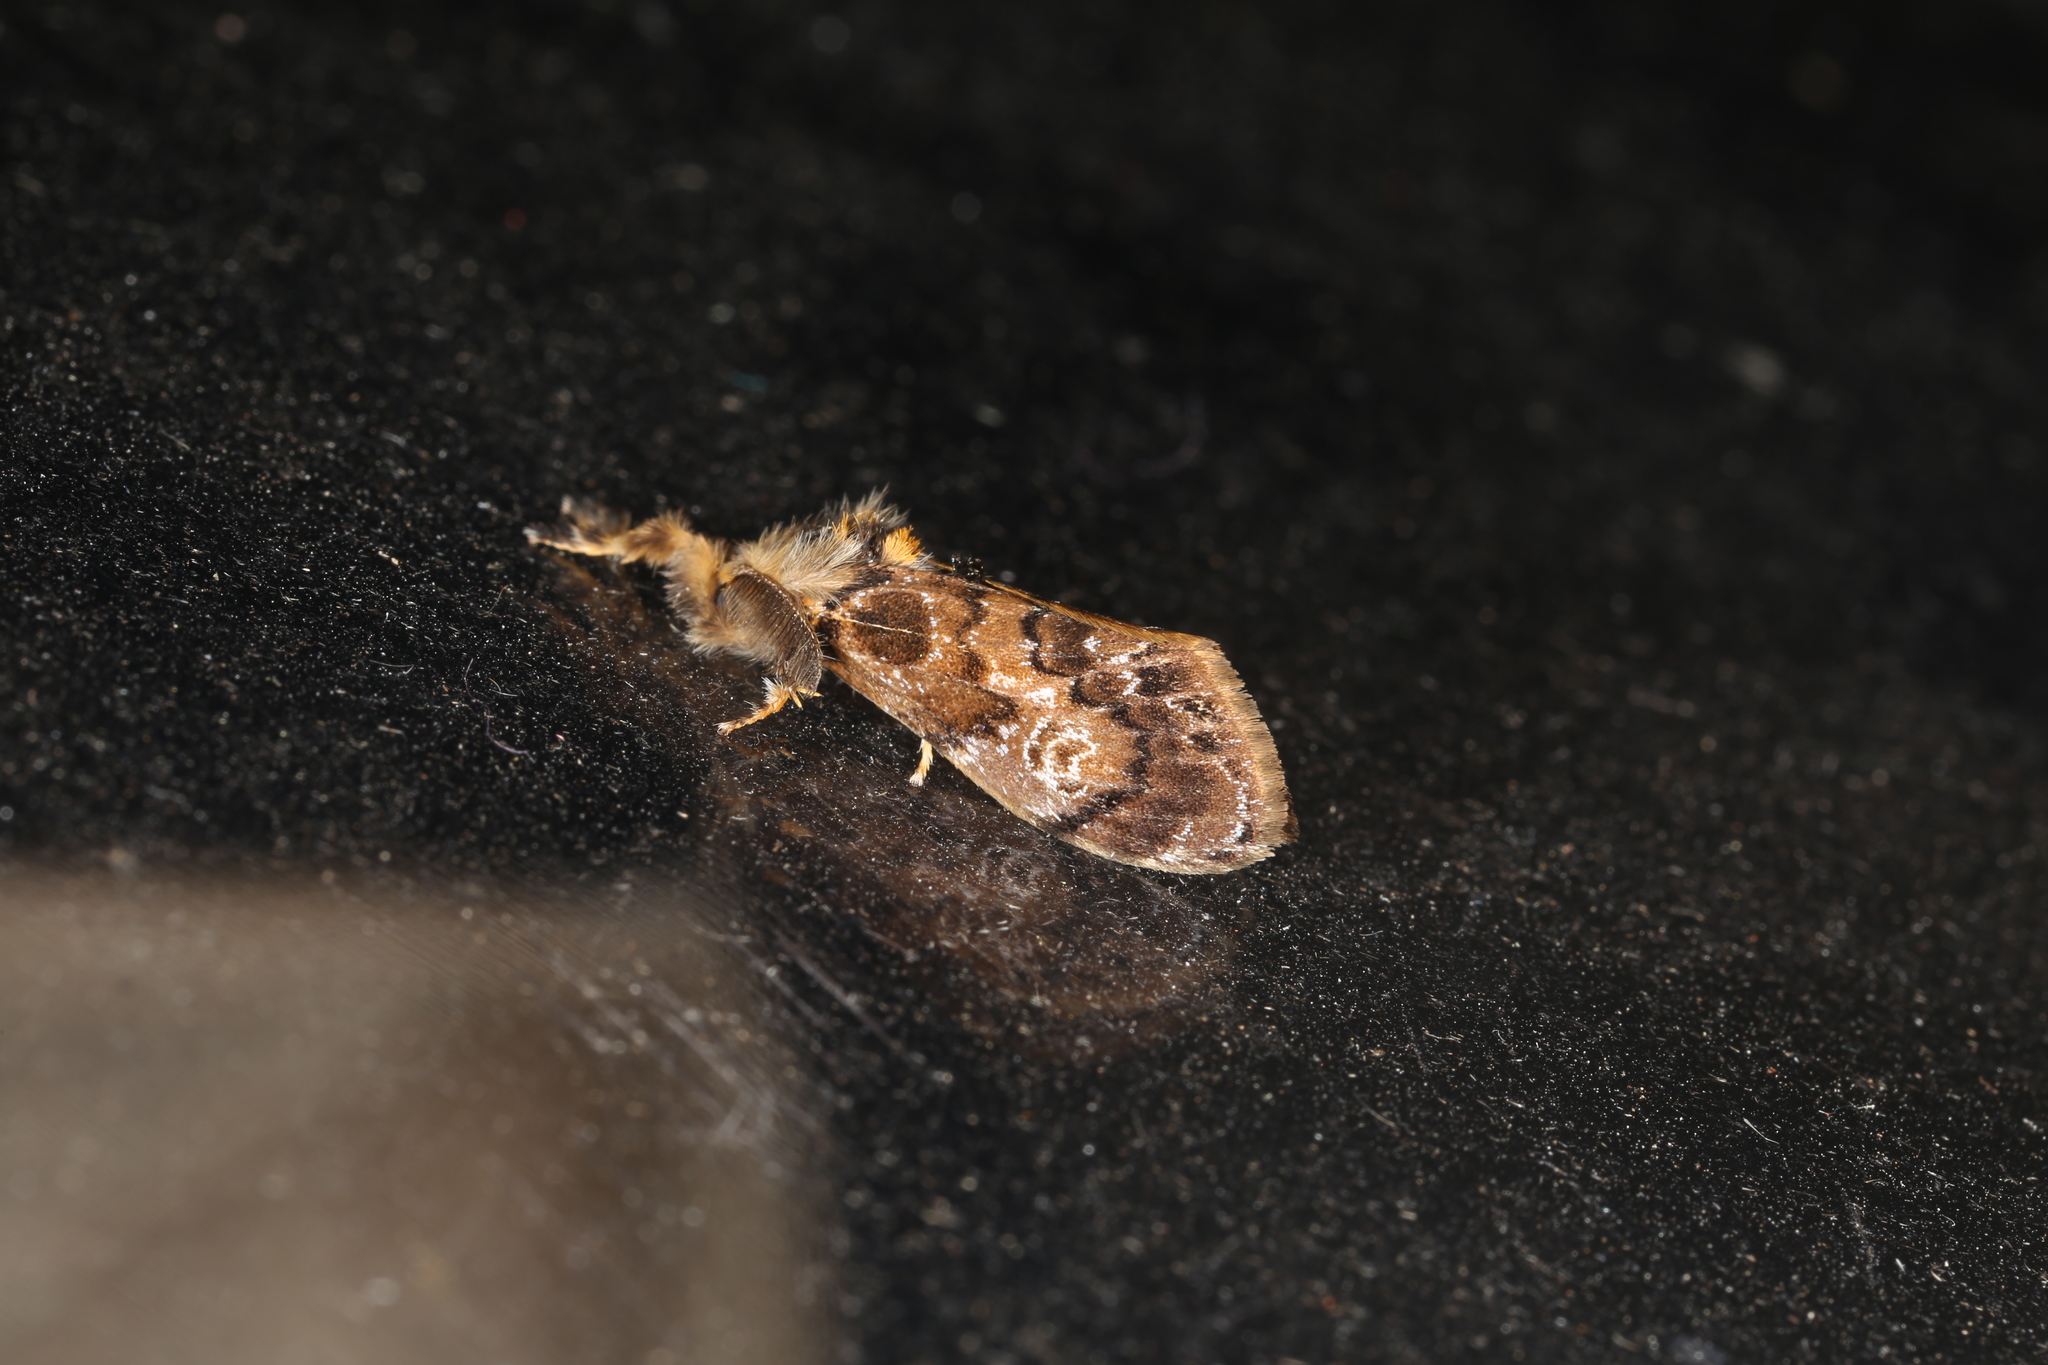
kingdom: Animalia
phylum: Arthropoda
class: Insecta
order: Lepidoptera
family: Erebidae
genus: Orgyia
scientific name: Orgyia
